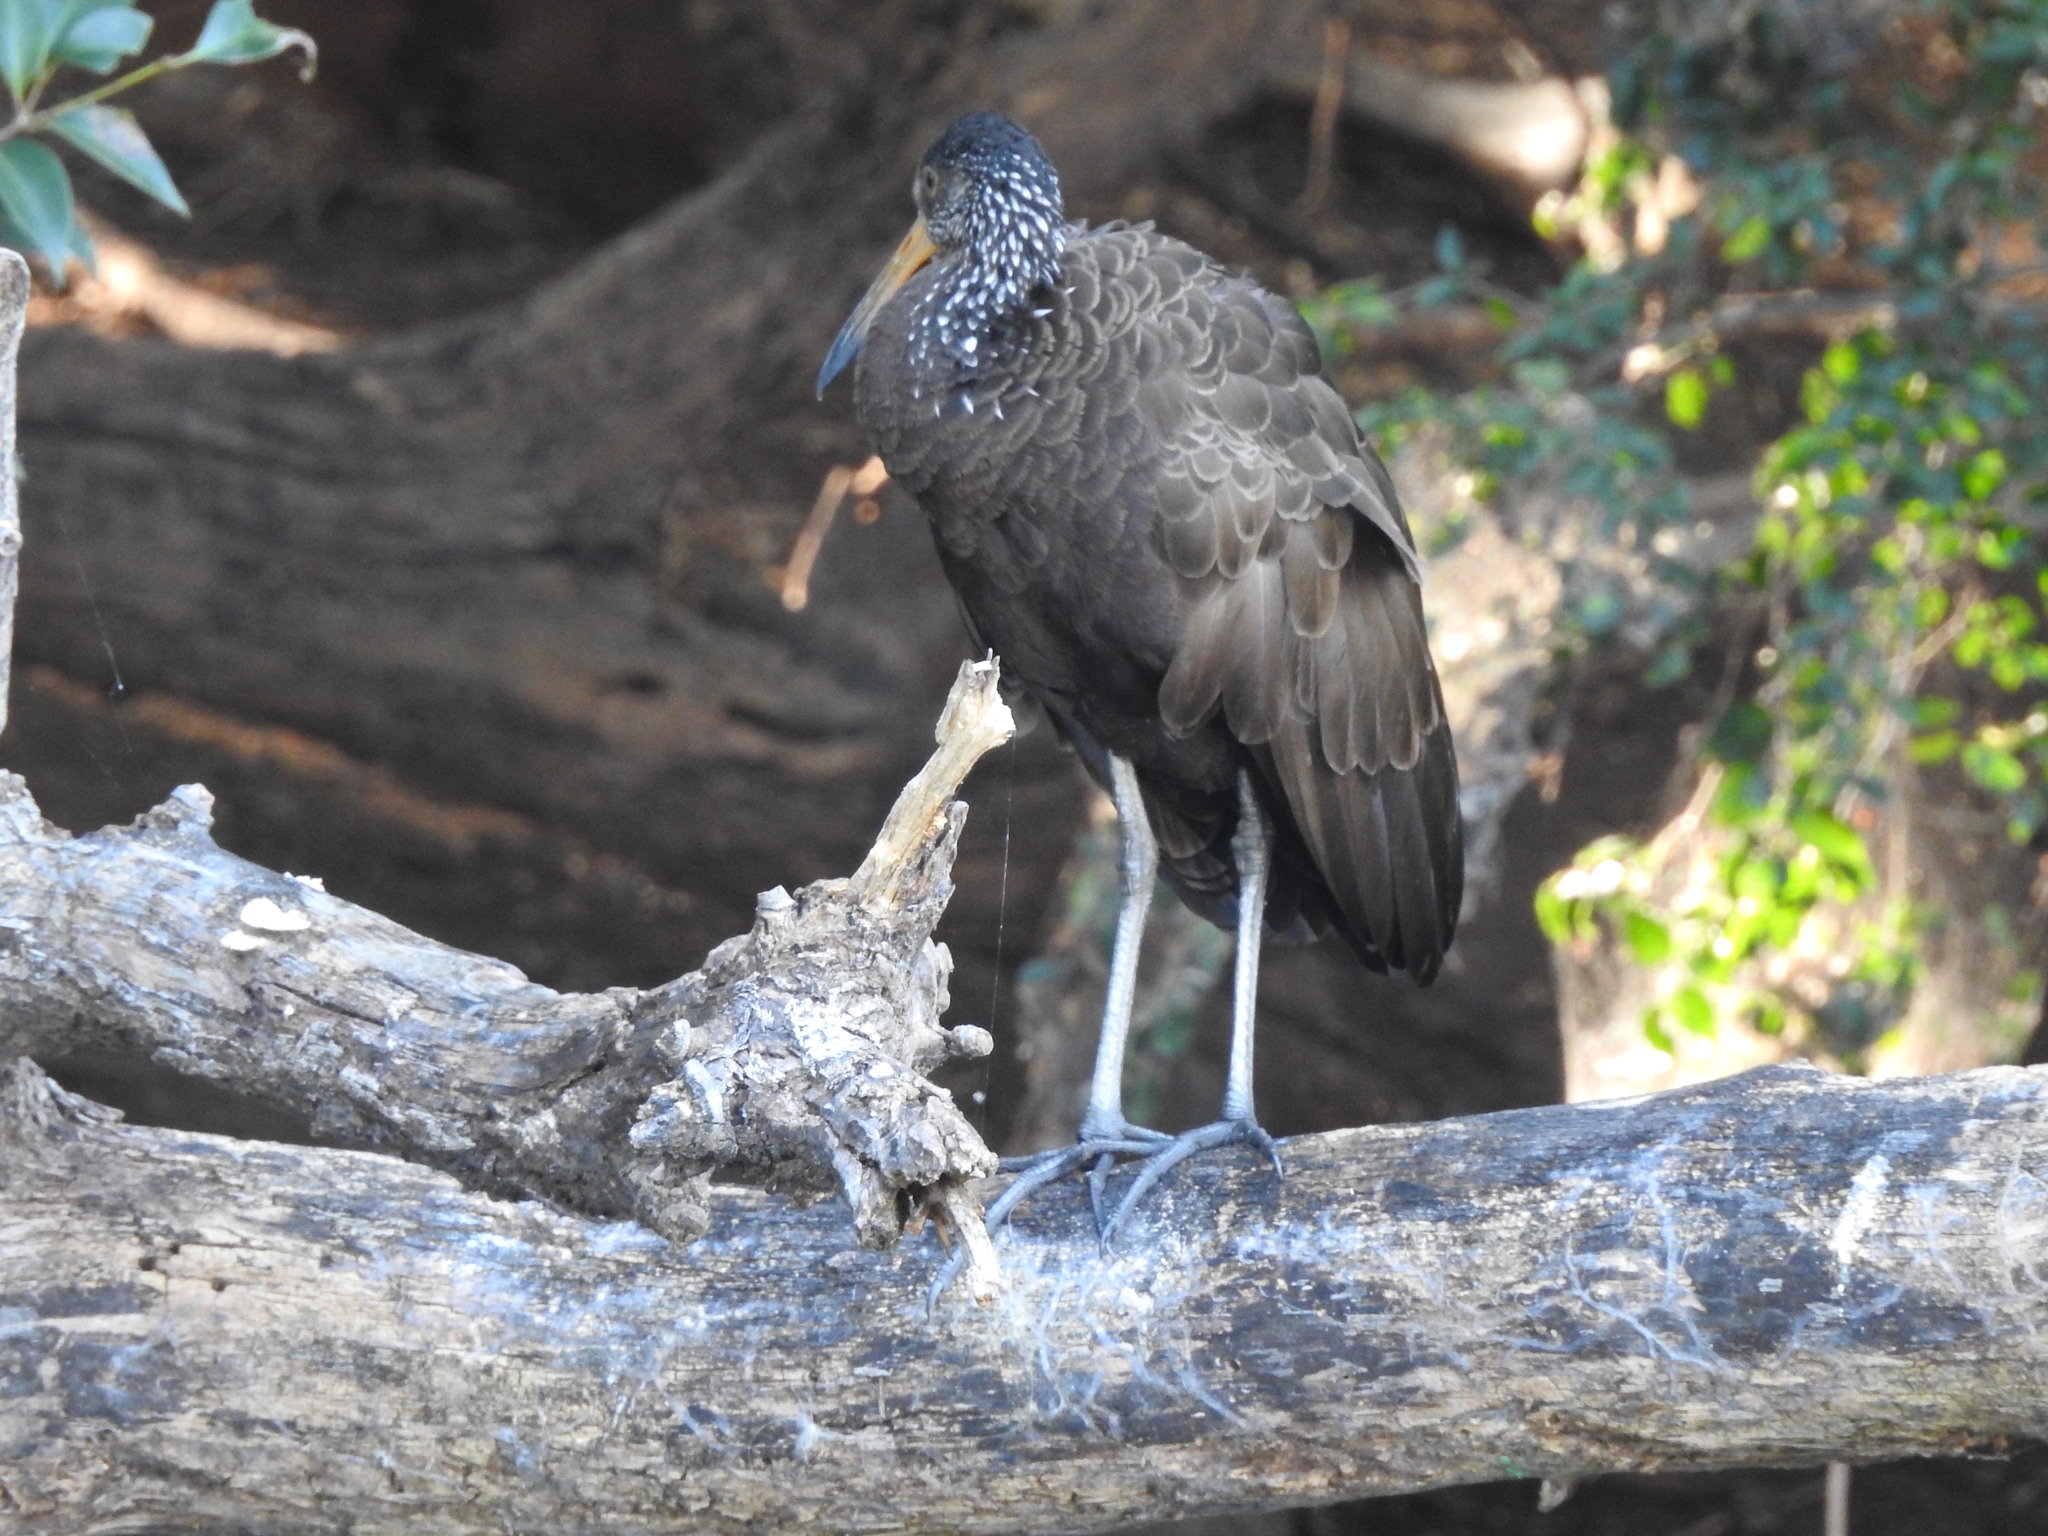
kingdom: Animalia
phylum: Chordata
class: Aves
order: Gruiformes
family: Aramidae
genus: Aramus
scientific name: Aramus guarauna
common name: Limpkin
